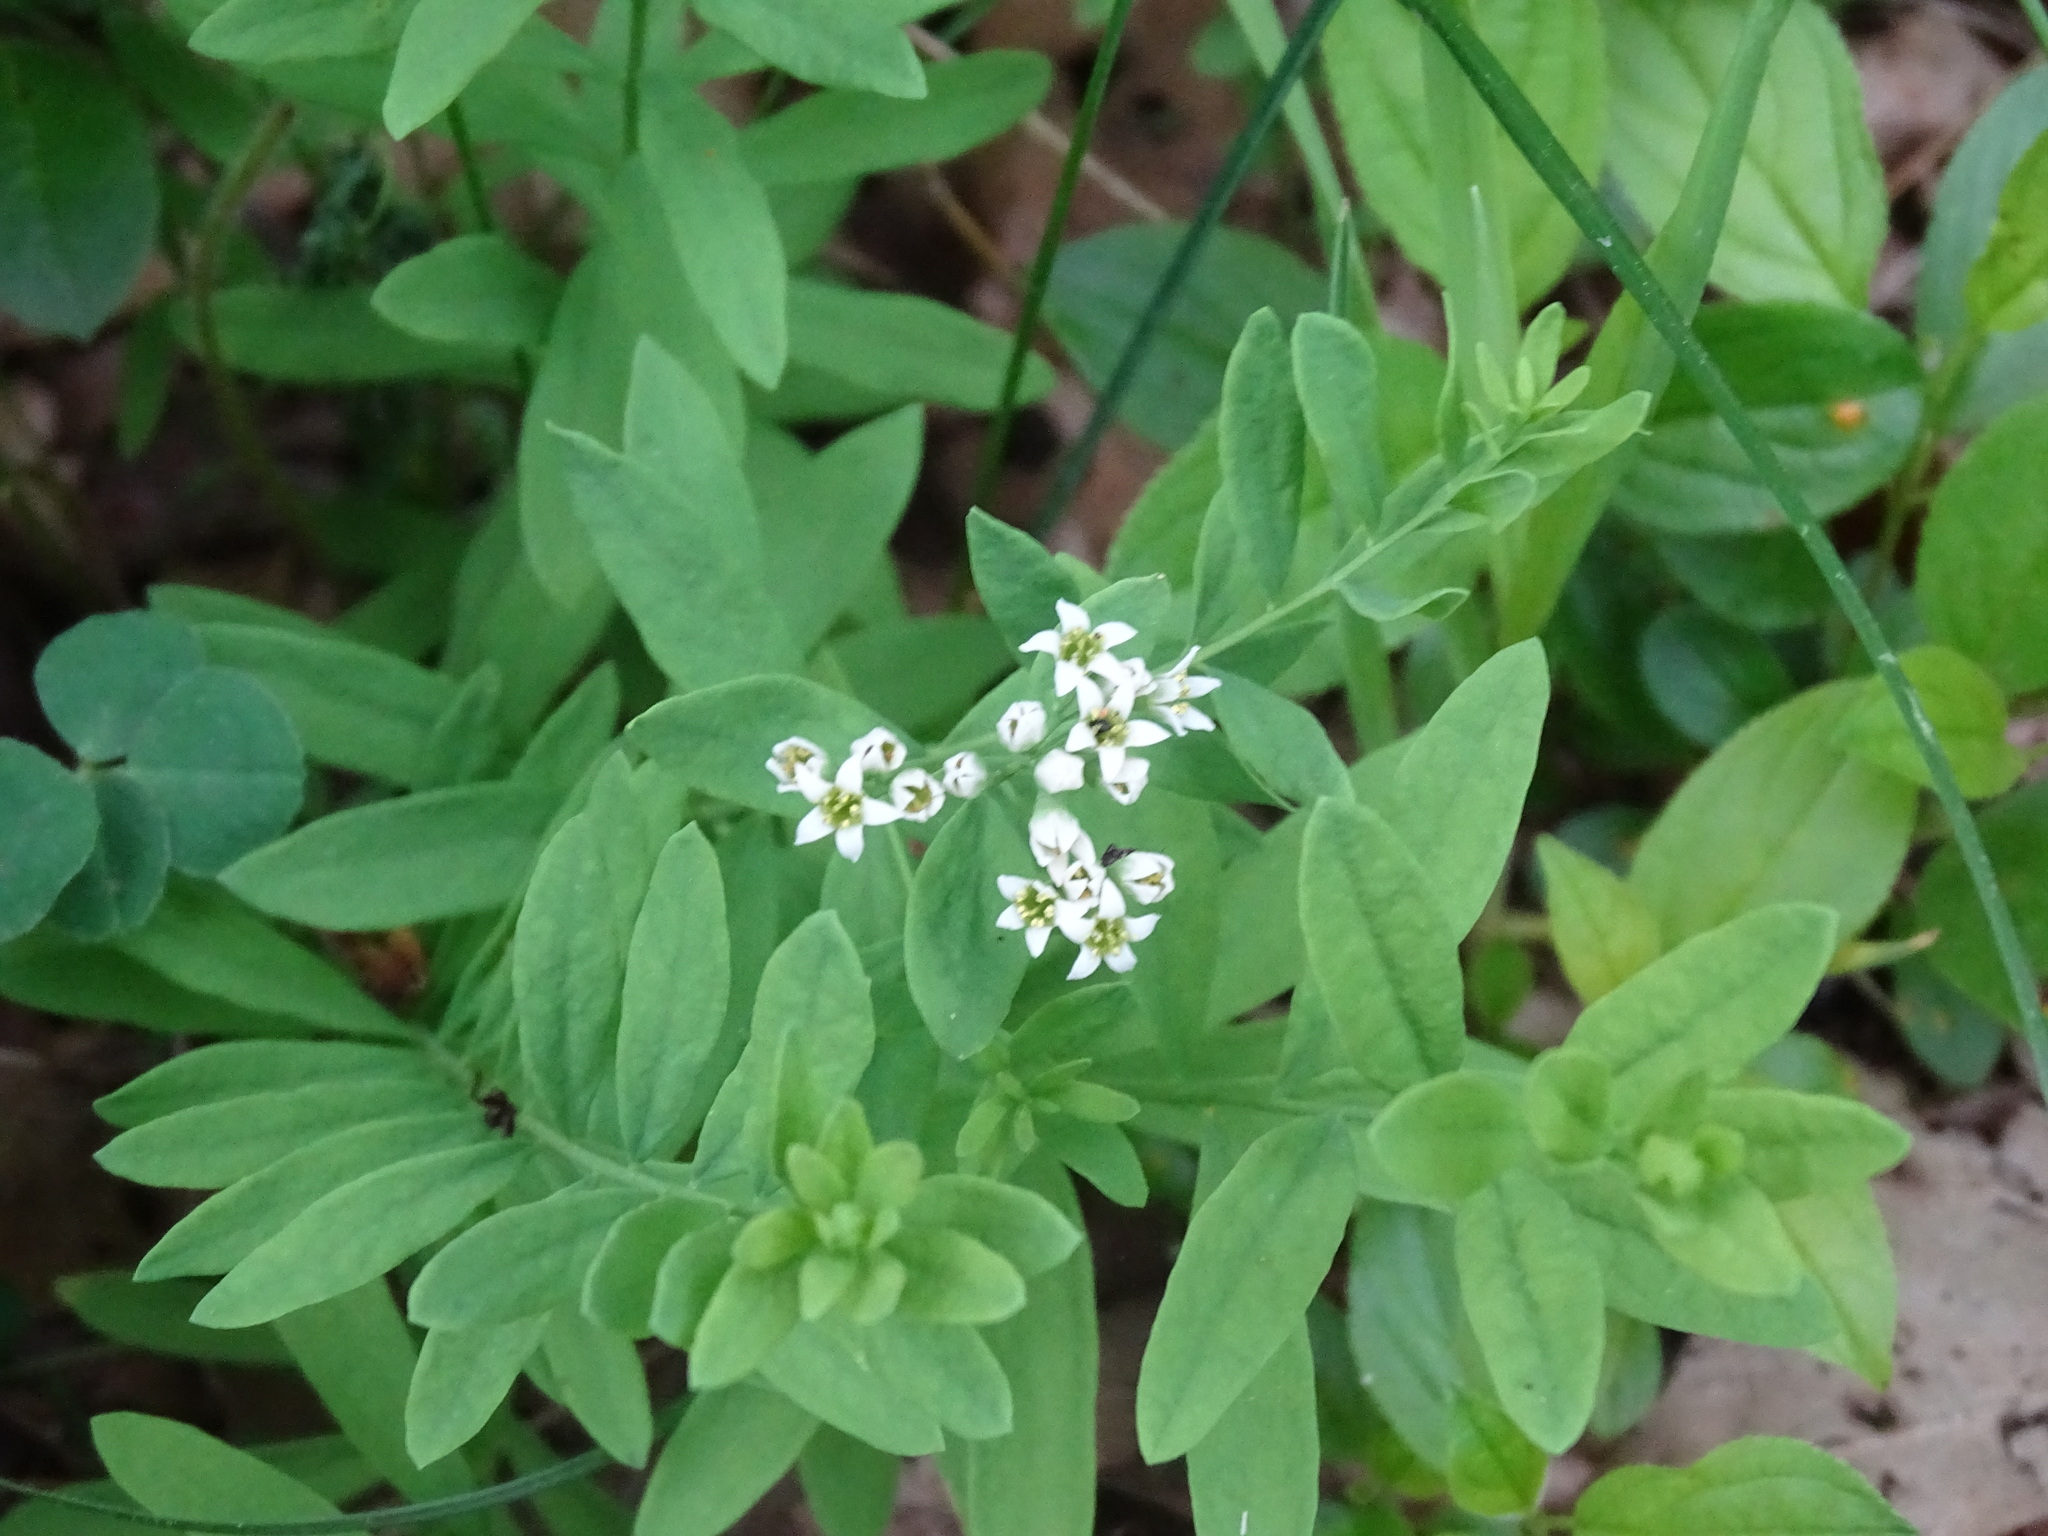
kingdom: Plantae
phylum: Tracheophyta
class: Magnoliopsida
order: Santalales
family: Comandraceae
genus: Comandra
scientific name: Comandra umbellata
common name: Bastard toadflax
